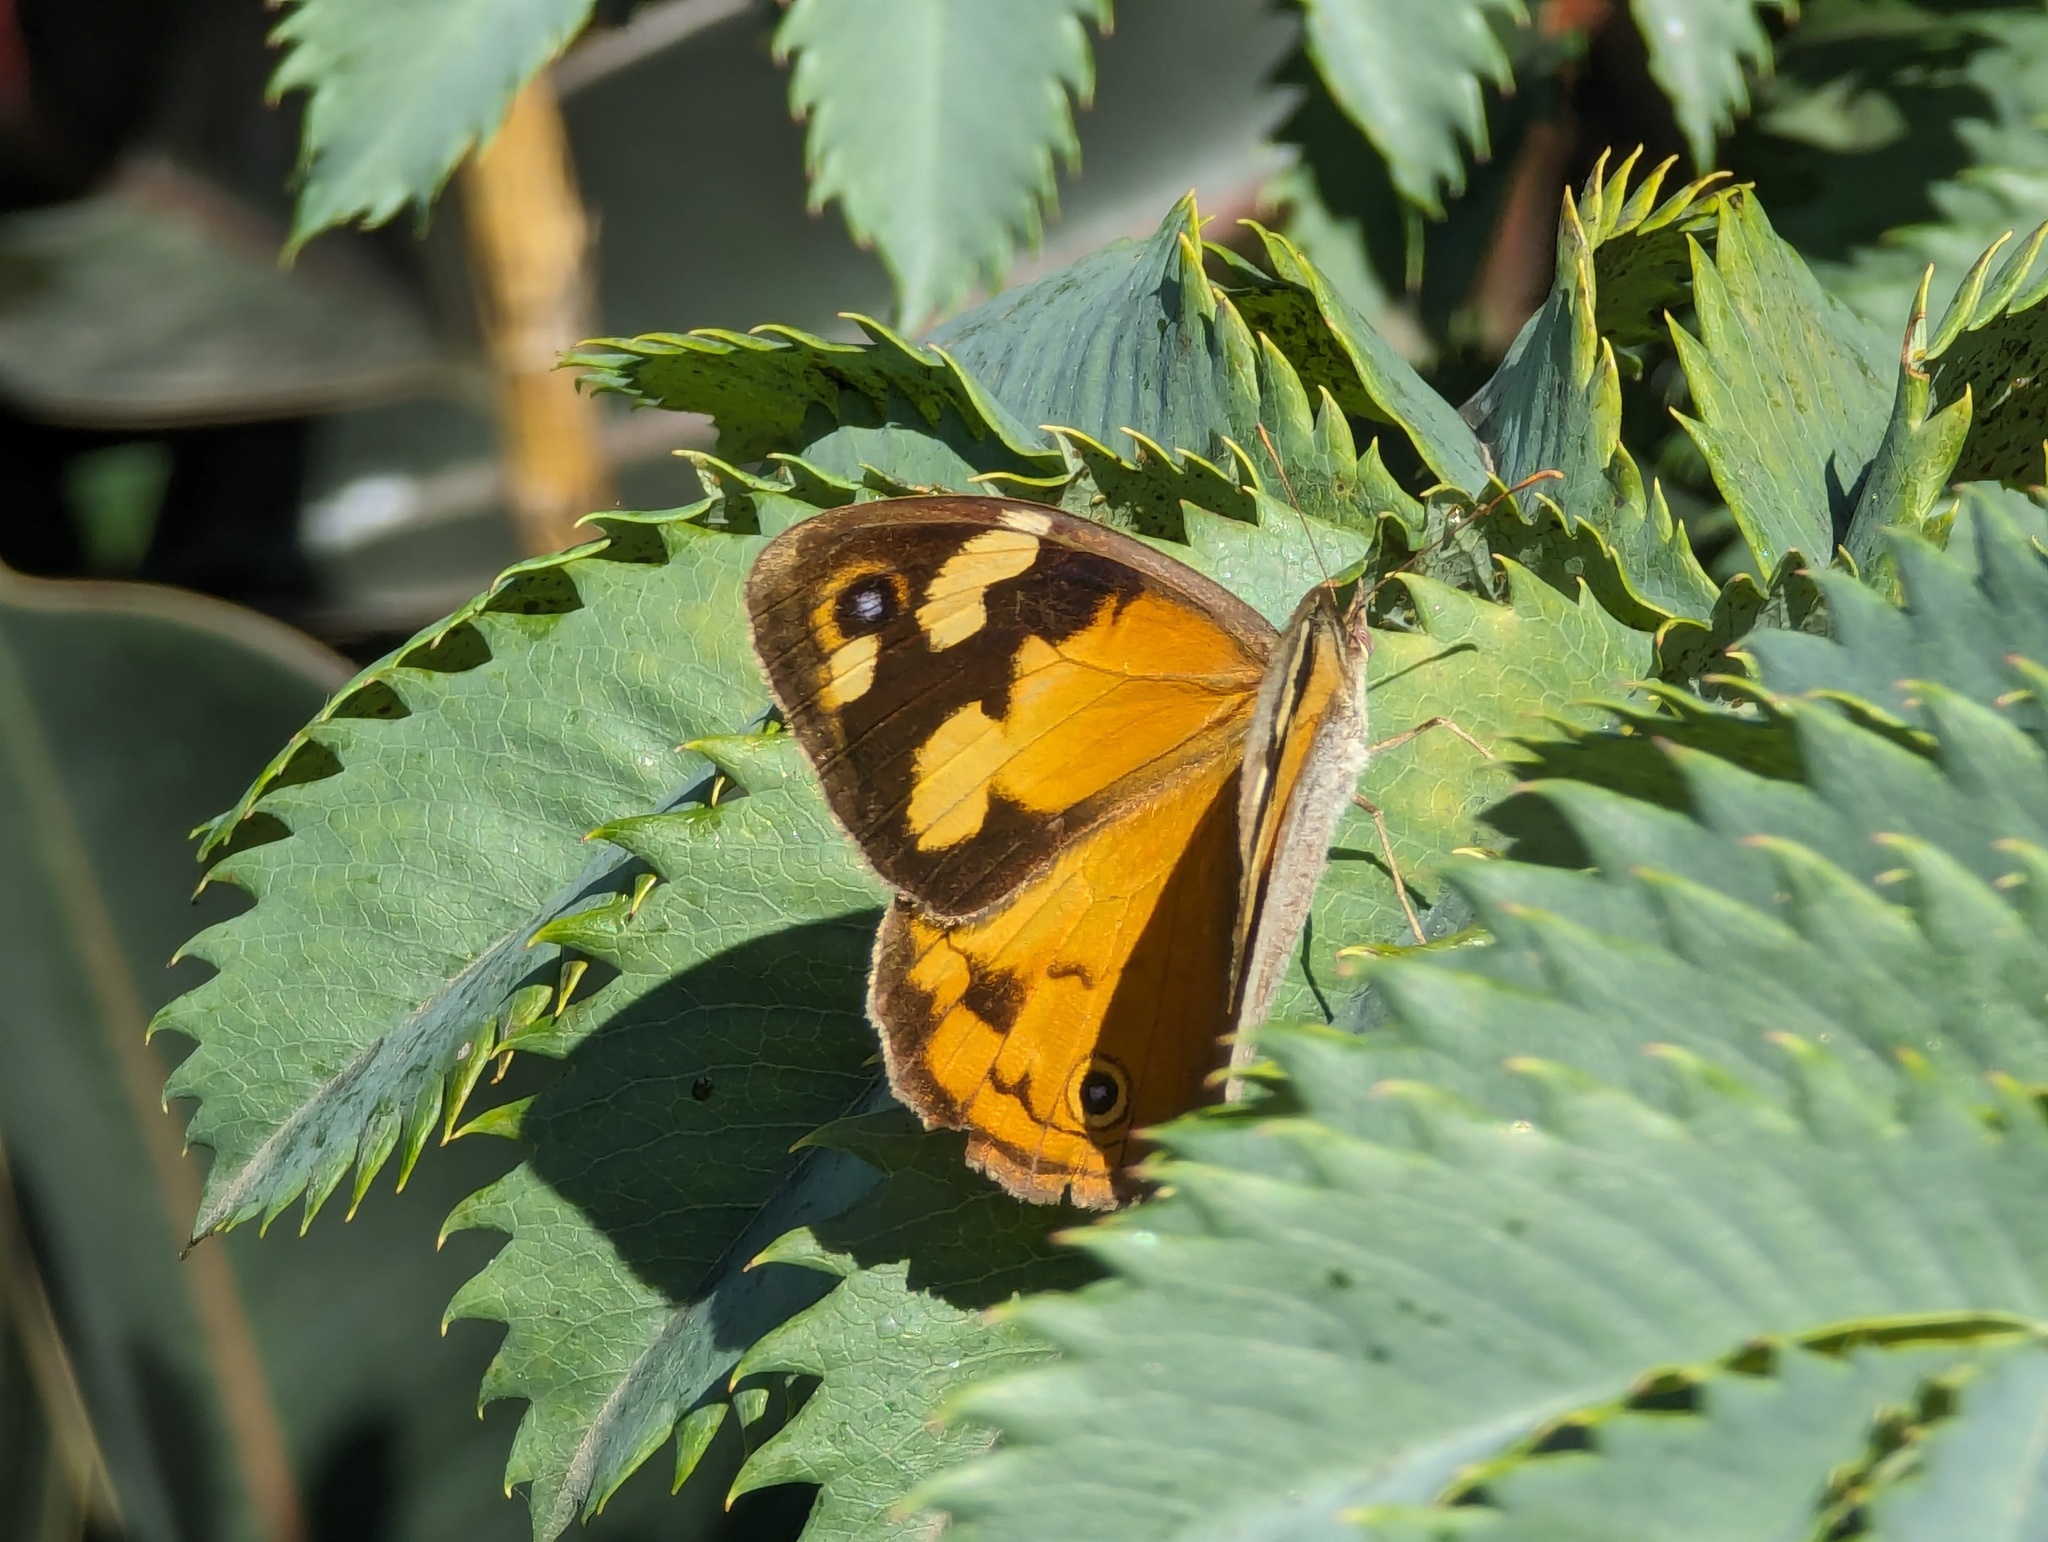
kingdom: Animalia
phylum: Arthropoda
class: Insecta
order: Lepidoptera
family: Nymphalidae
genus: Heteronympha
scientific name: Heteronympha merope
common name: Common brown
